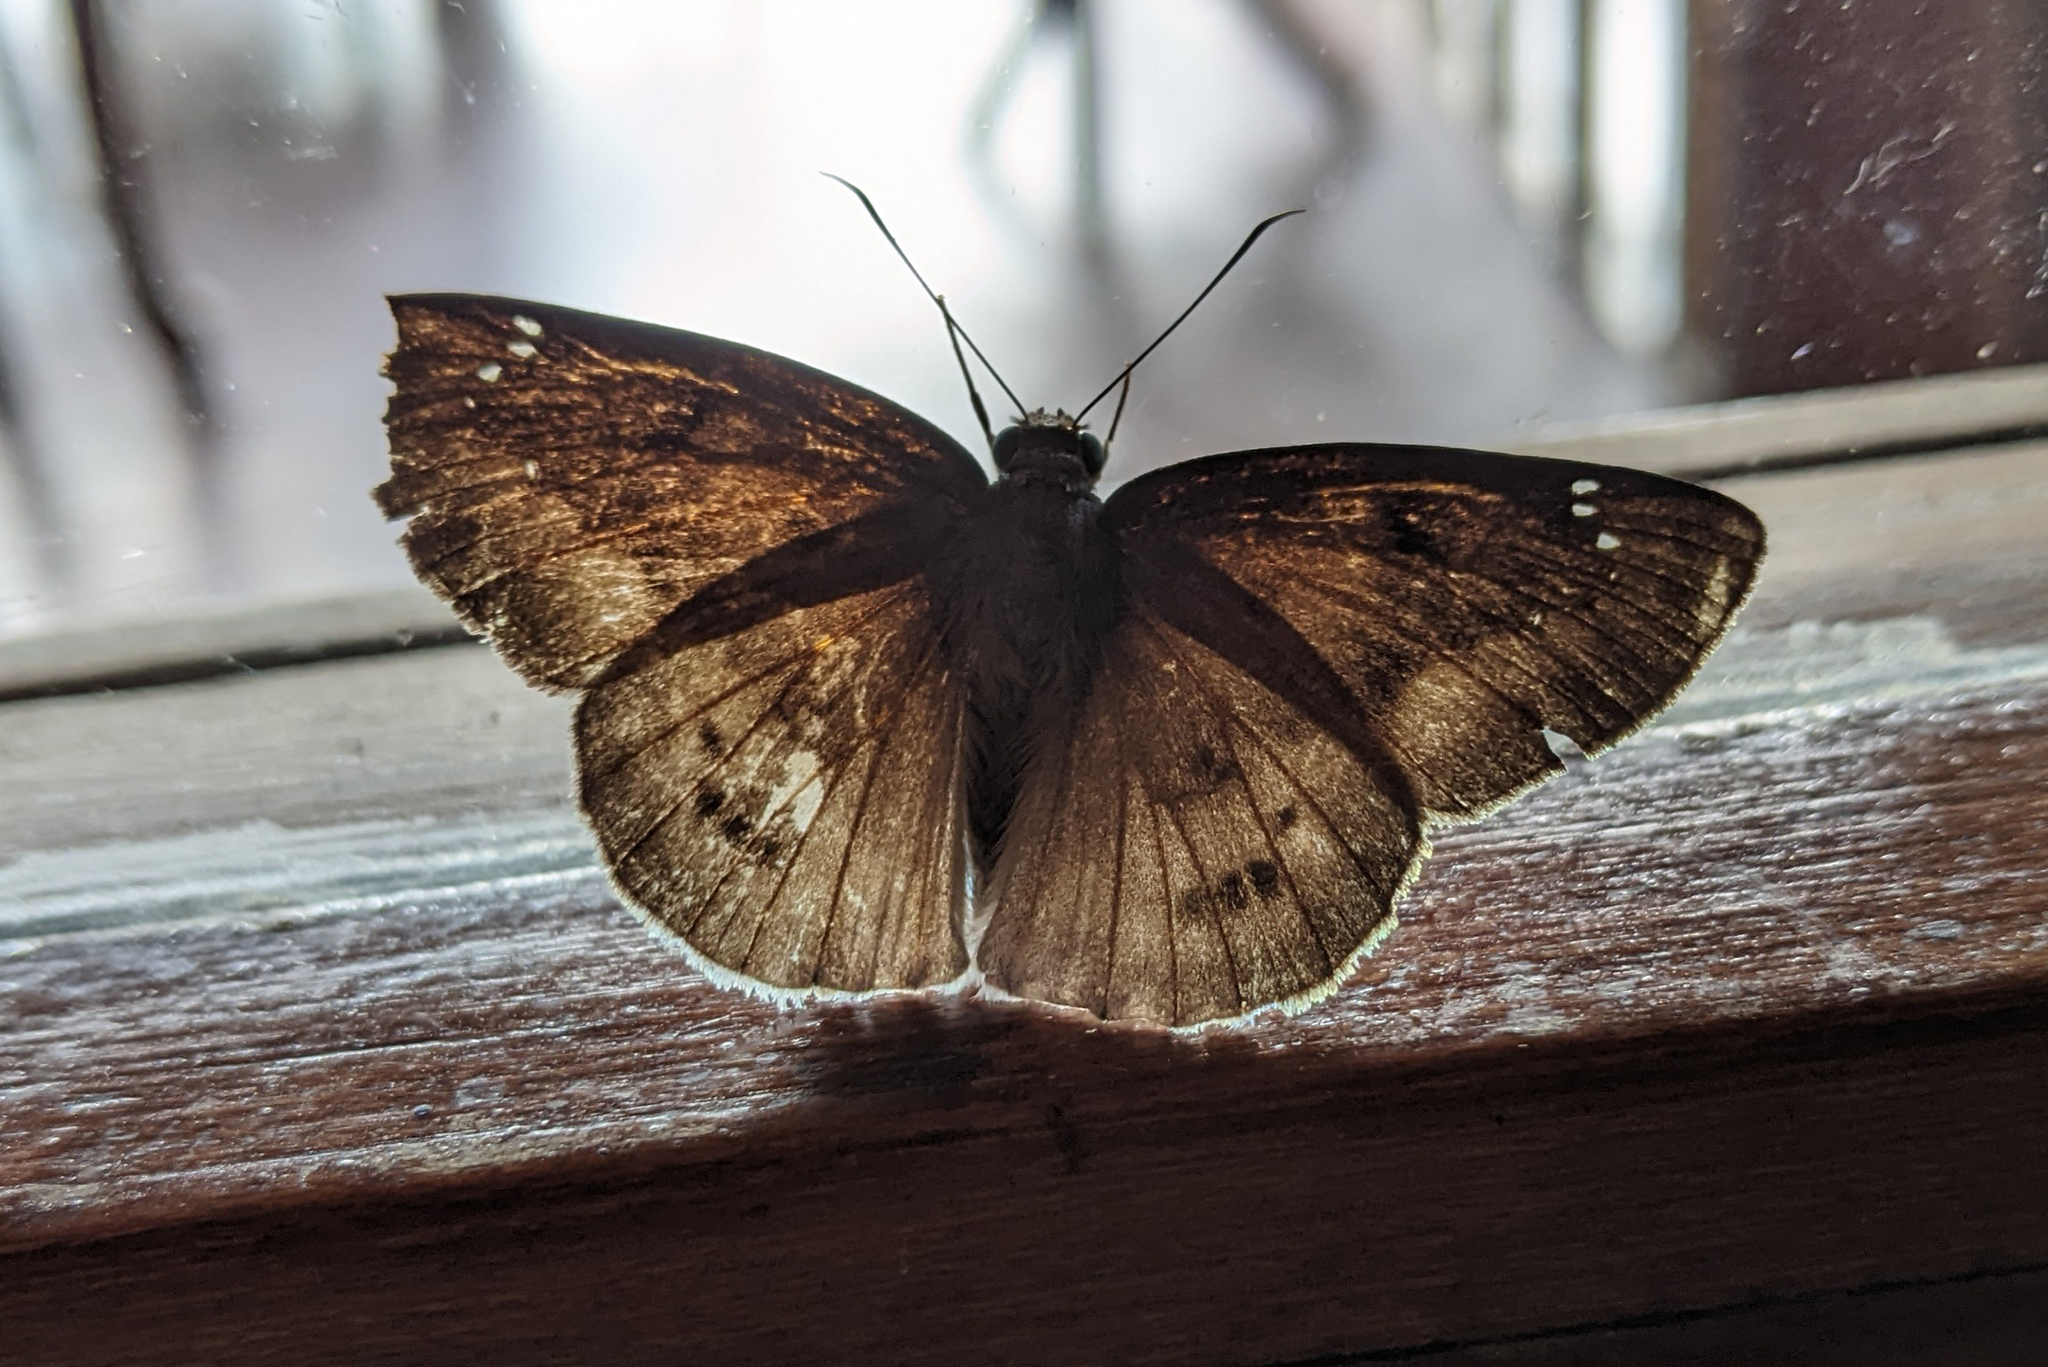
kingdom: Animalia
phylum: Arthropoda
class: Insecta
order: Lepidoptera
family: Hesperiidae
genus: Tagiades
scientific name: Tagiades gana
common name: Suffused snow flat
